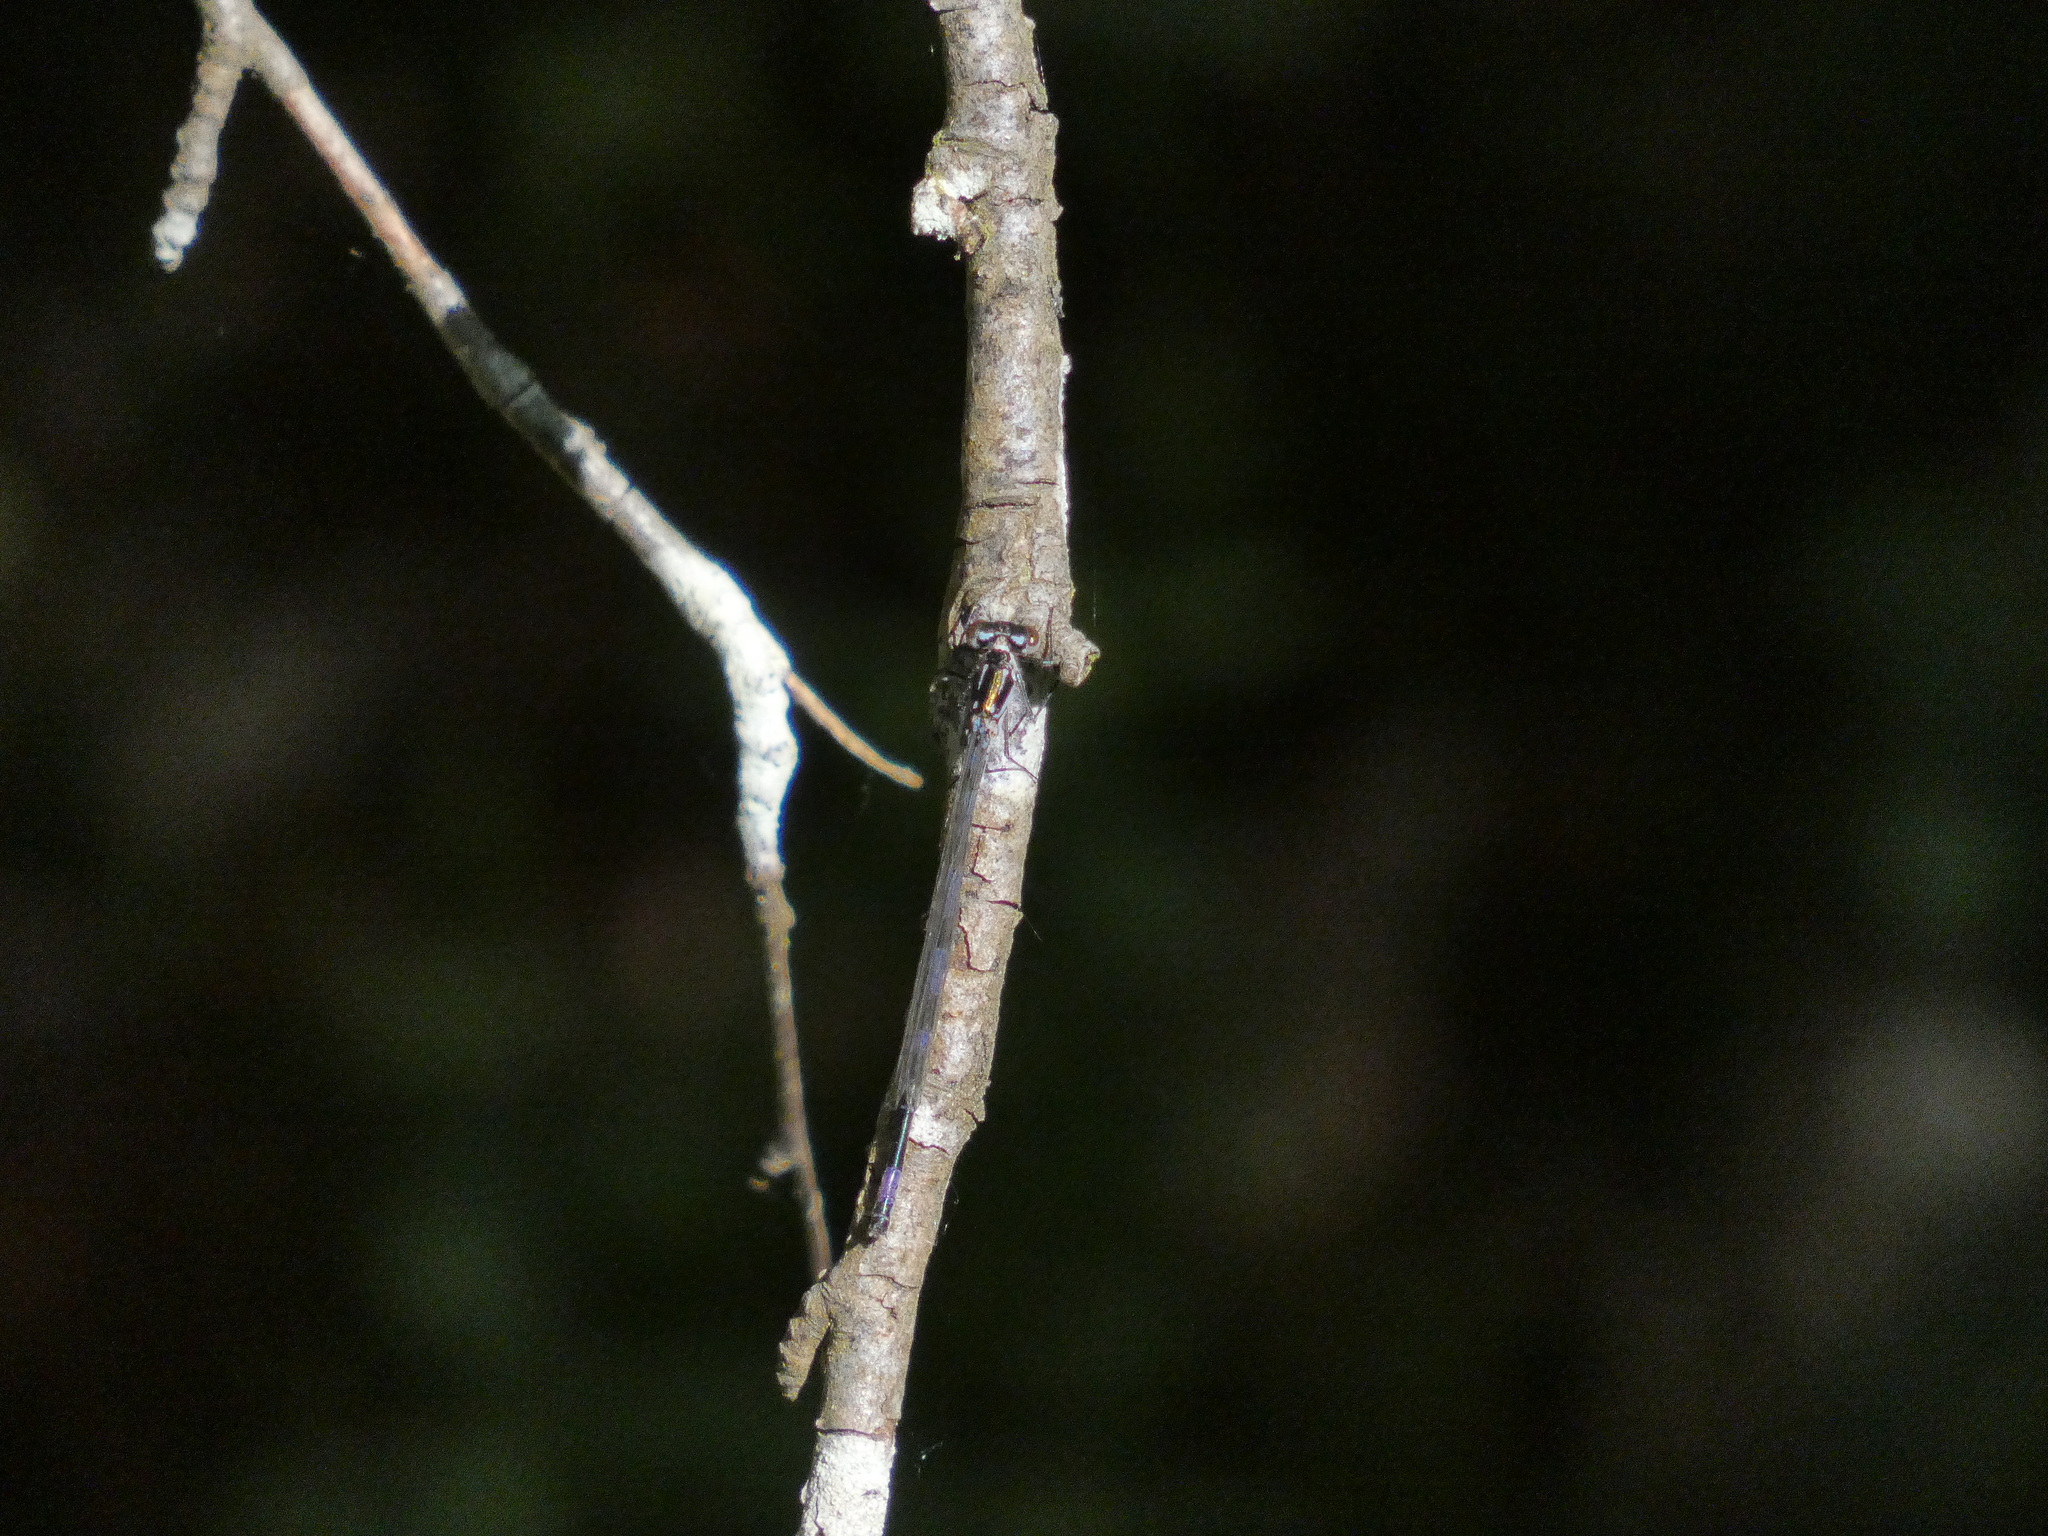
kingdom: Animalia
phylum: Arthropoda
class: Insecta
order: Odonata
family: Coenagrionidae
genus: Coenagrion
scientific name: Coenagrion pulchellum
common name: Variable bluet
